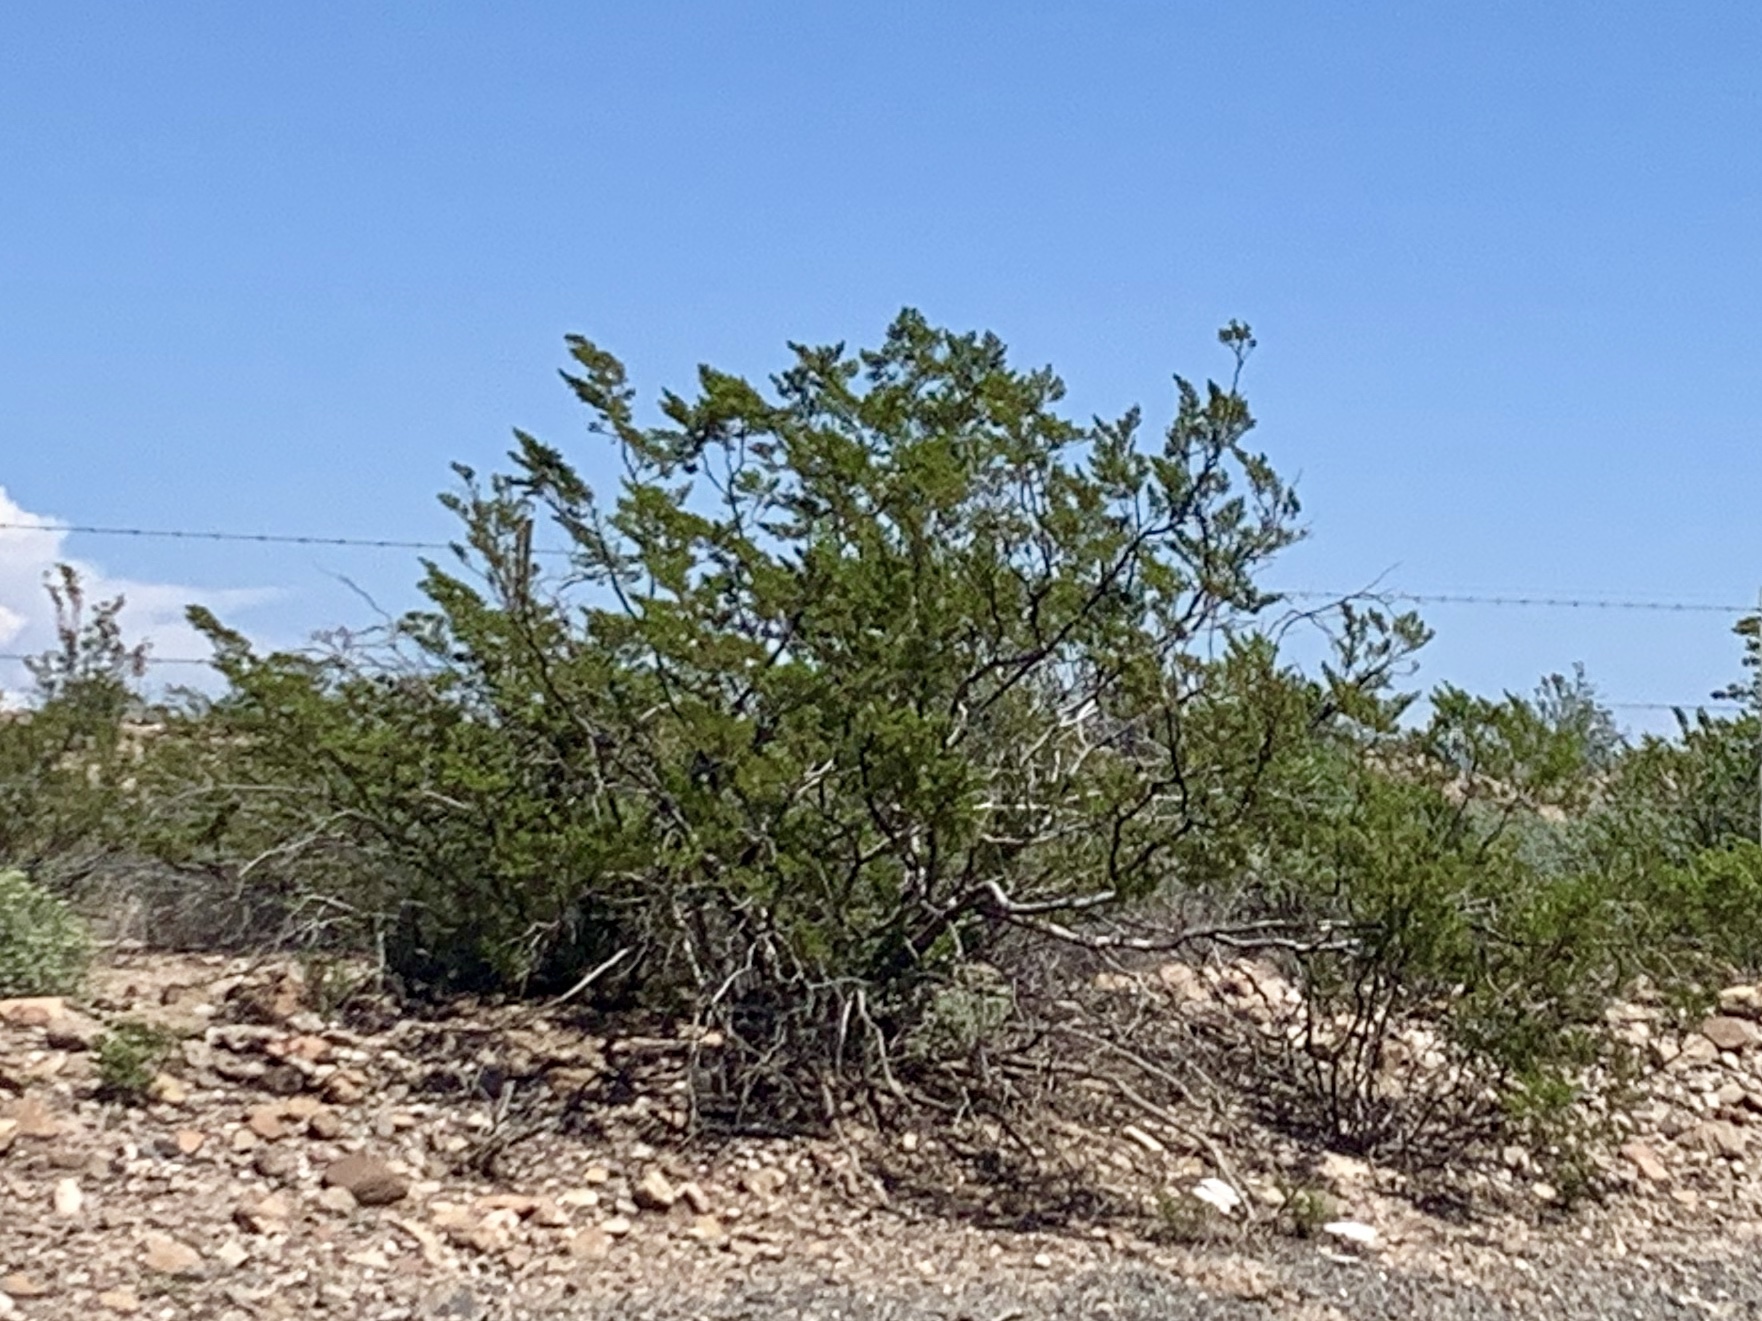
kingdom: Plantae
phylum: Tracheophyta
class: Magnoliopsida
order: Zygophyllales
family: Zygophyllaceae
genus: Larrea
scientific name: Larrea tridentata
